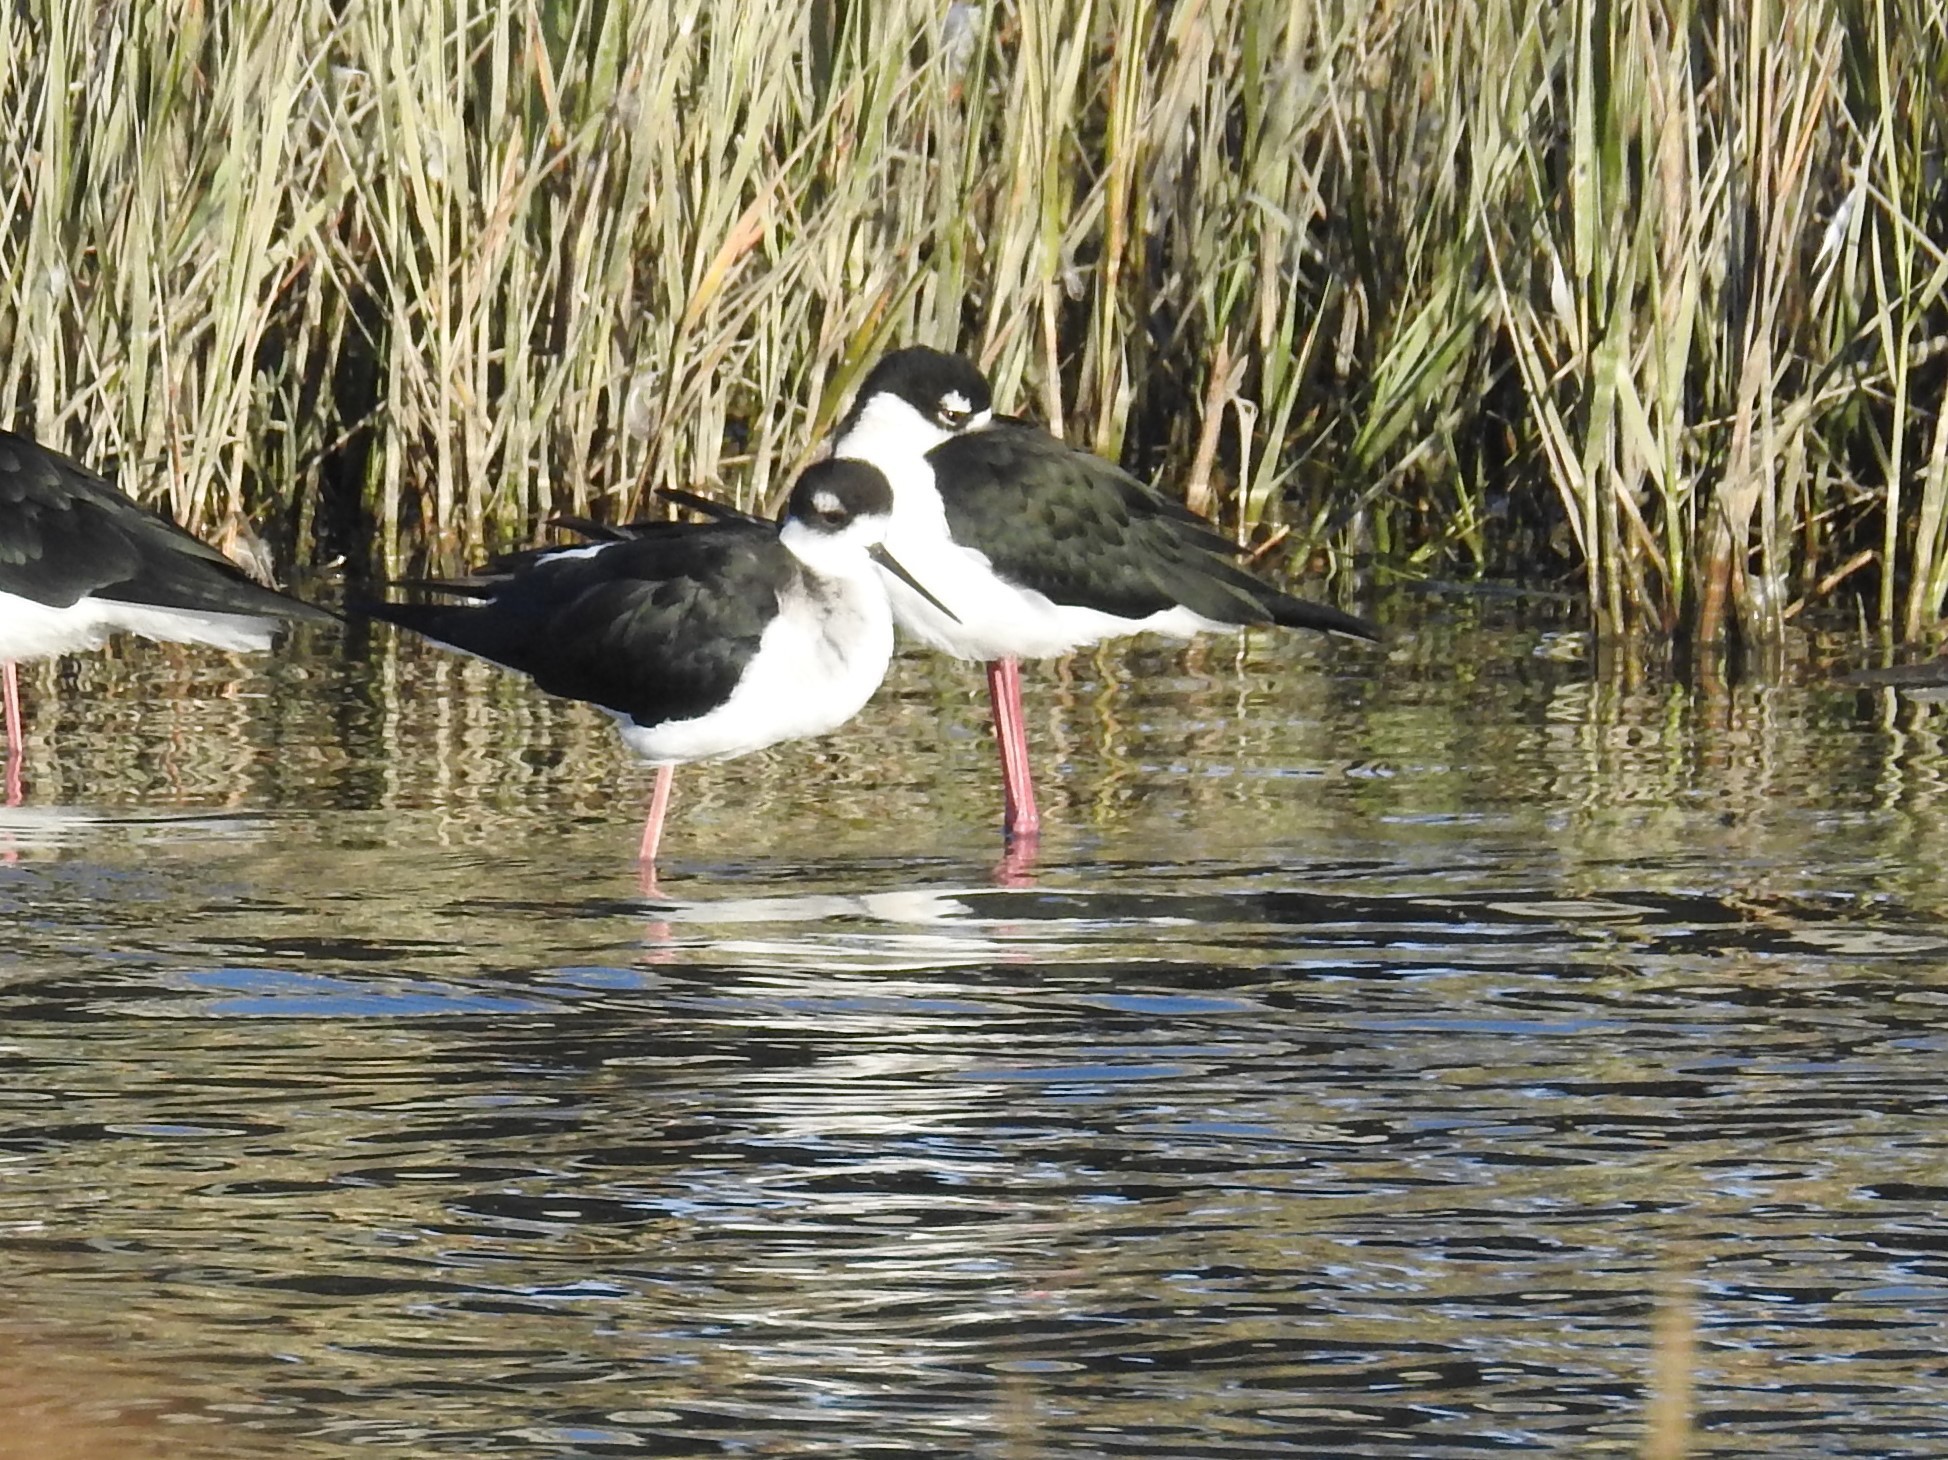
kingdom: Animalia
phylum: Chordata
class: Aves
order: Charadriiformes
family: Recurvirostridae
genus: Himantopus
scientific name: Himantopus mexicanus
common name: Black-necked stilt
